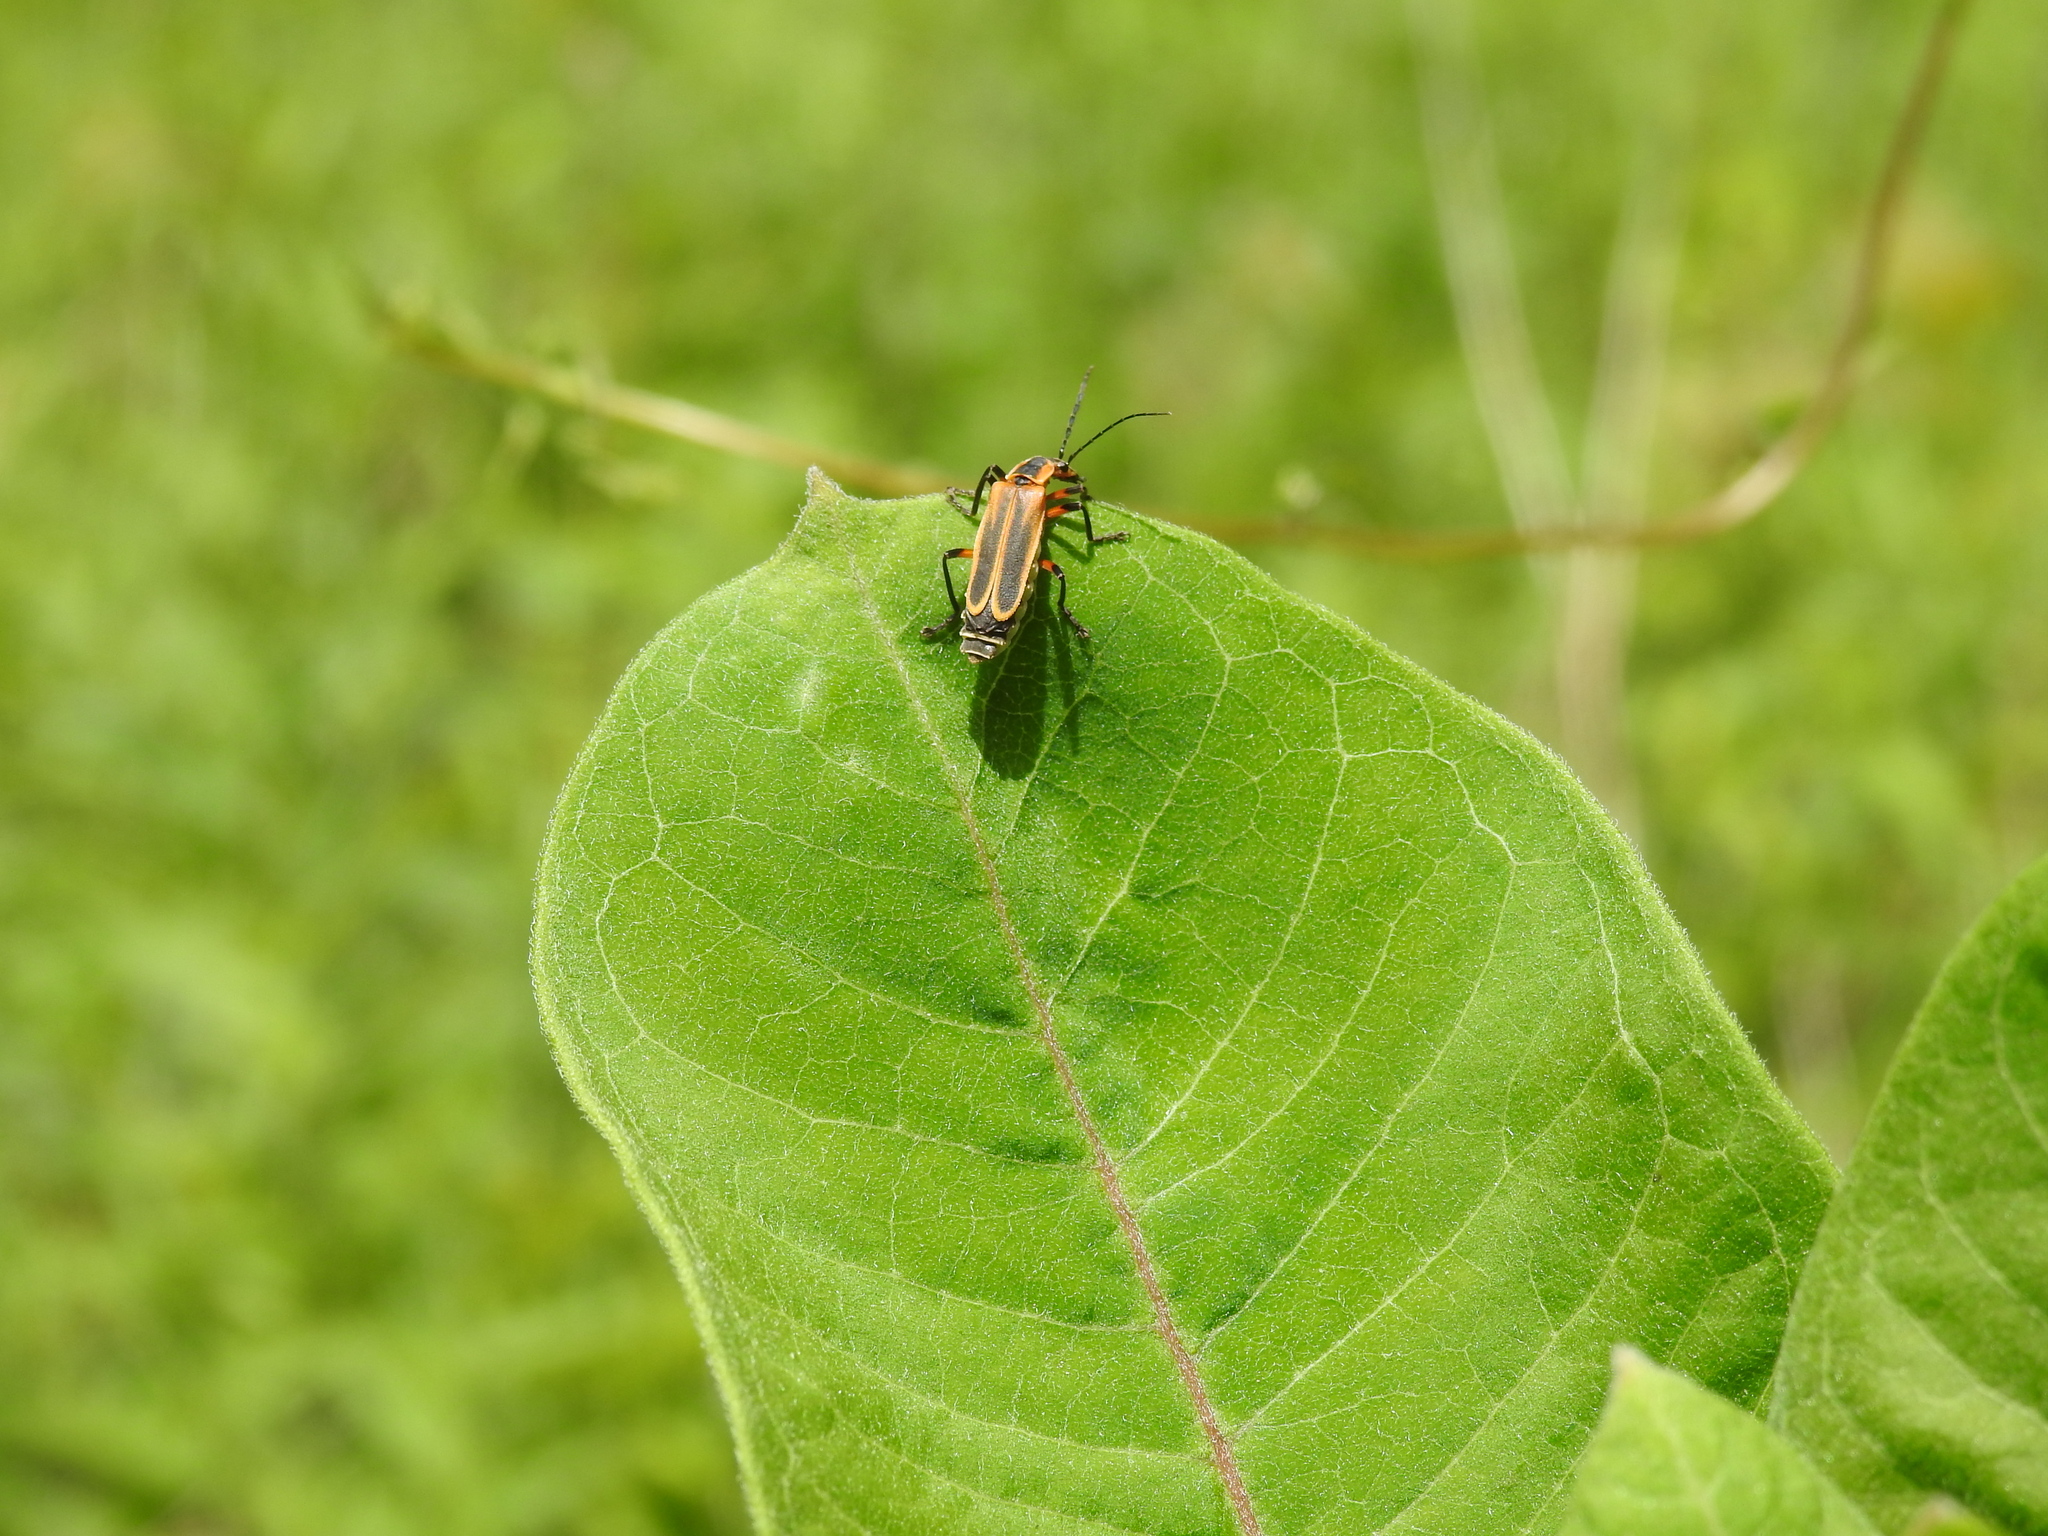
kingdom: Animalia
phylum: Arthropoda
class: Insecta
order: Coleoptera
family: Cantharidae
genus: Chauliognathus
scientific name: Chauliognathus marginatus
